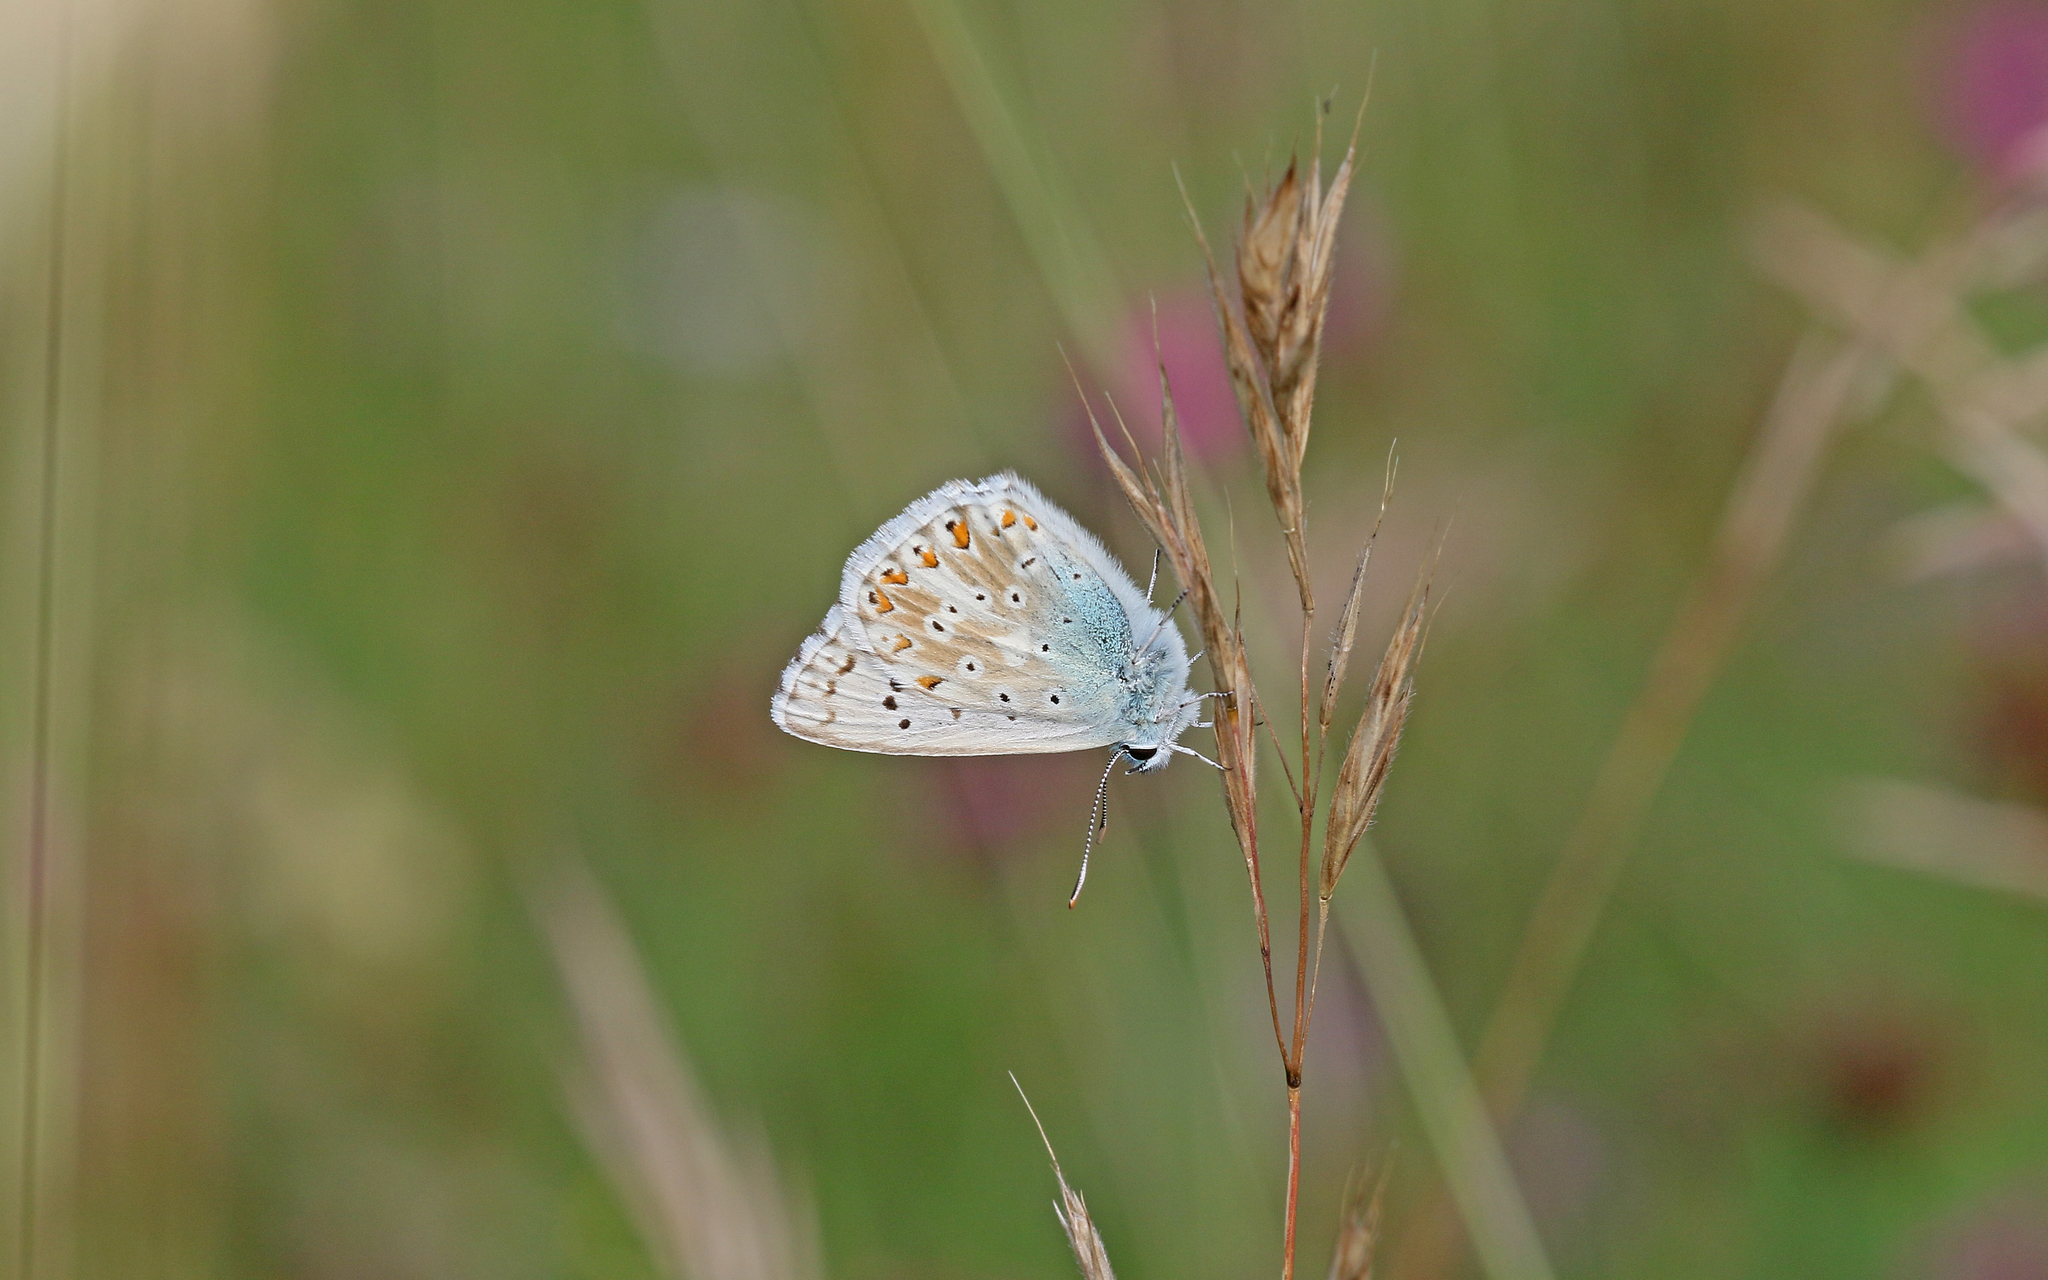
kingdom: Animalia
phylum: Arthropoda
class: Insecta
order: Lepidoptera
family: Lycaenidae
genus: Lysandra
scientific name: Lysandra coridon
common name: Chalkhill blue
